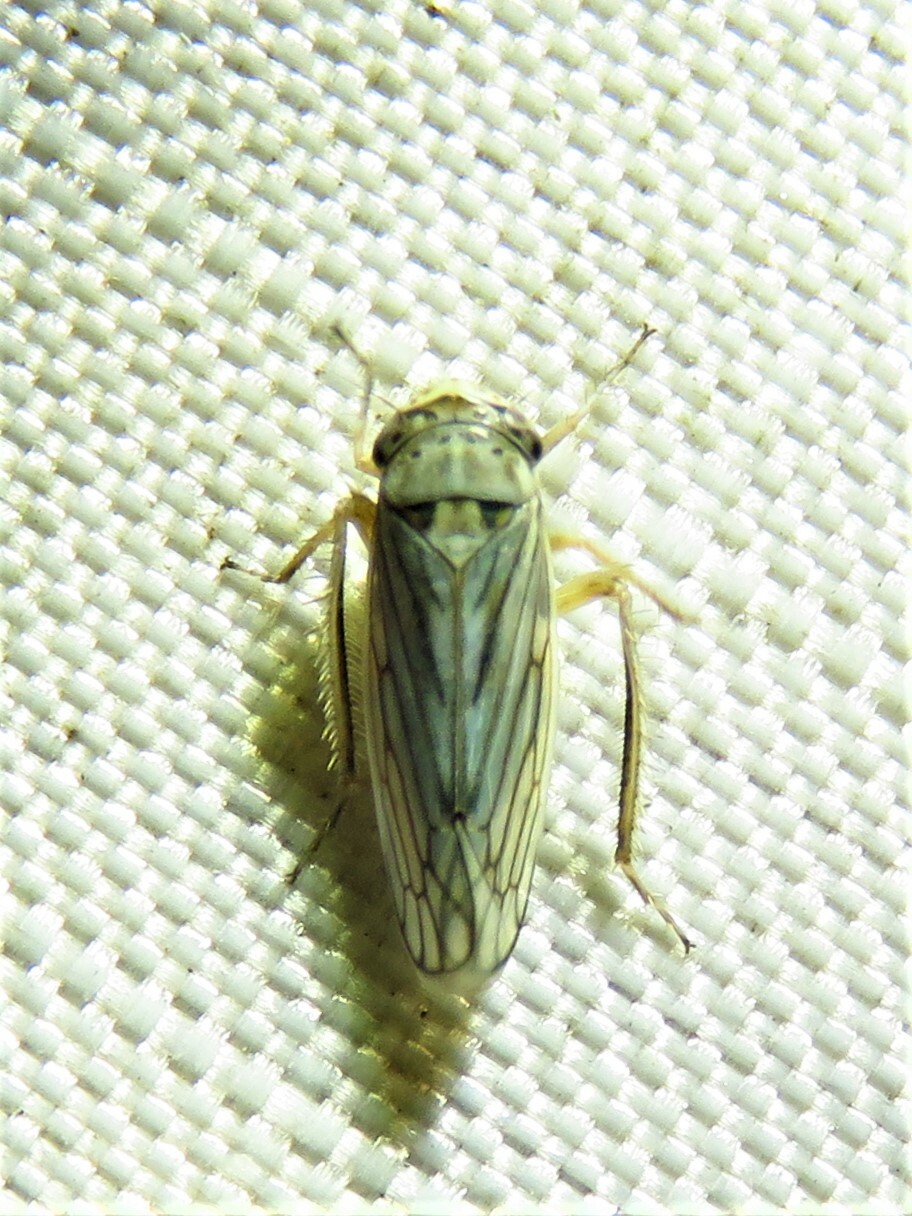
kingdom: Animalia
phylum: Arthropoda
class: Insecta
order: Hemiptera
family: Cicadellidae
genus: Exitianus
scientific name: Exitianus exitiosus
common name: Gray lawn leafhopper
